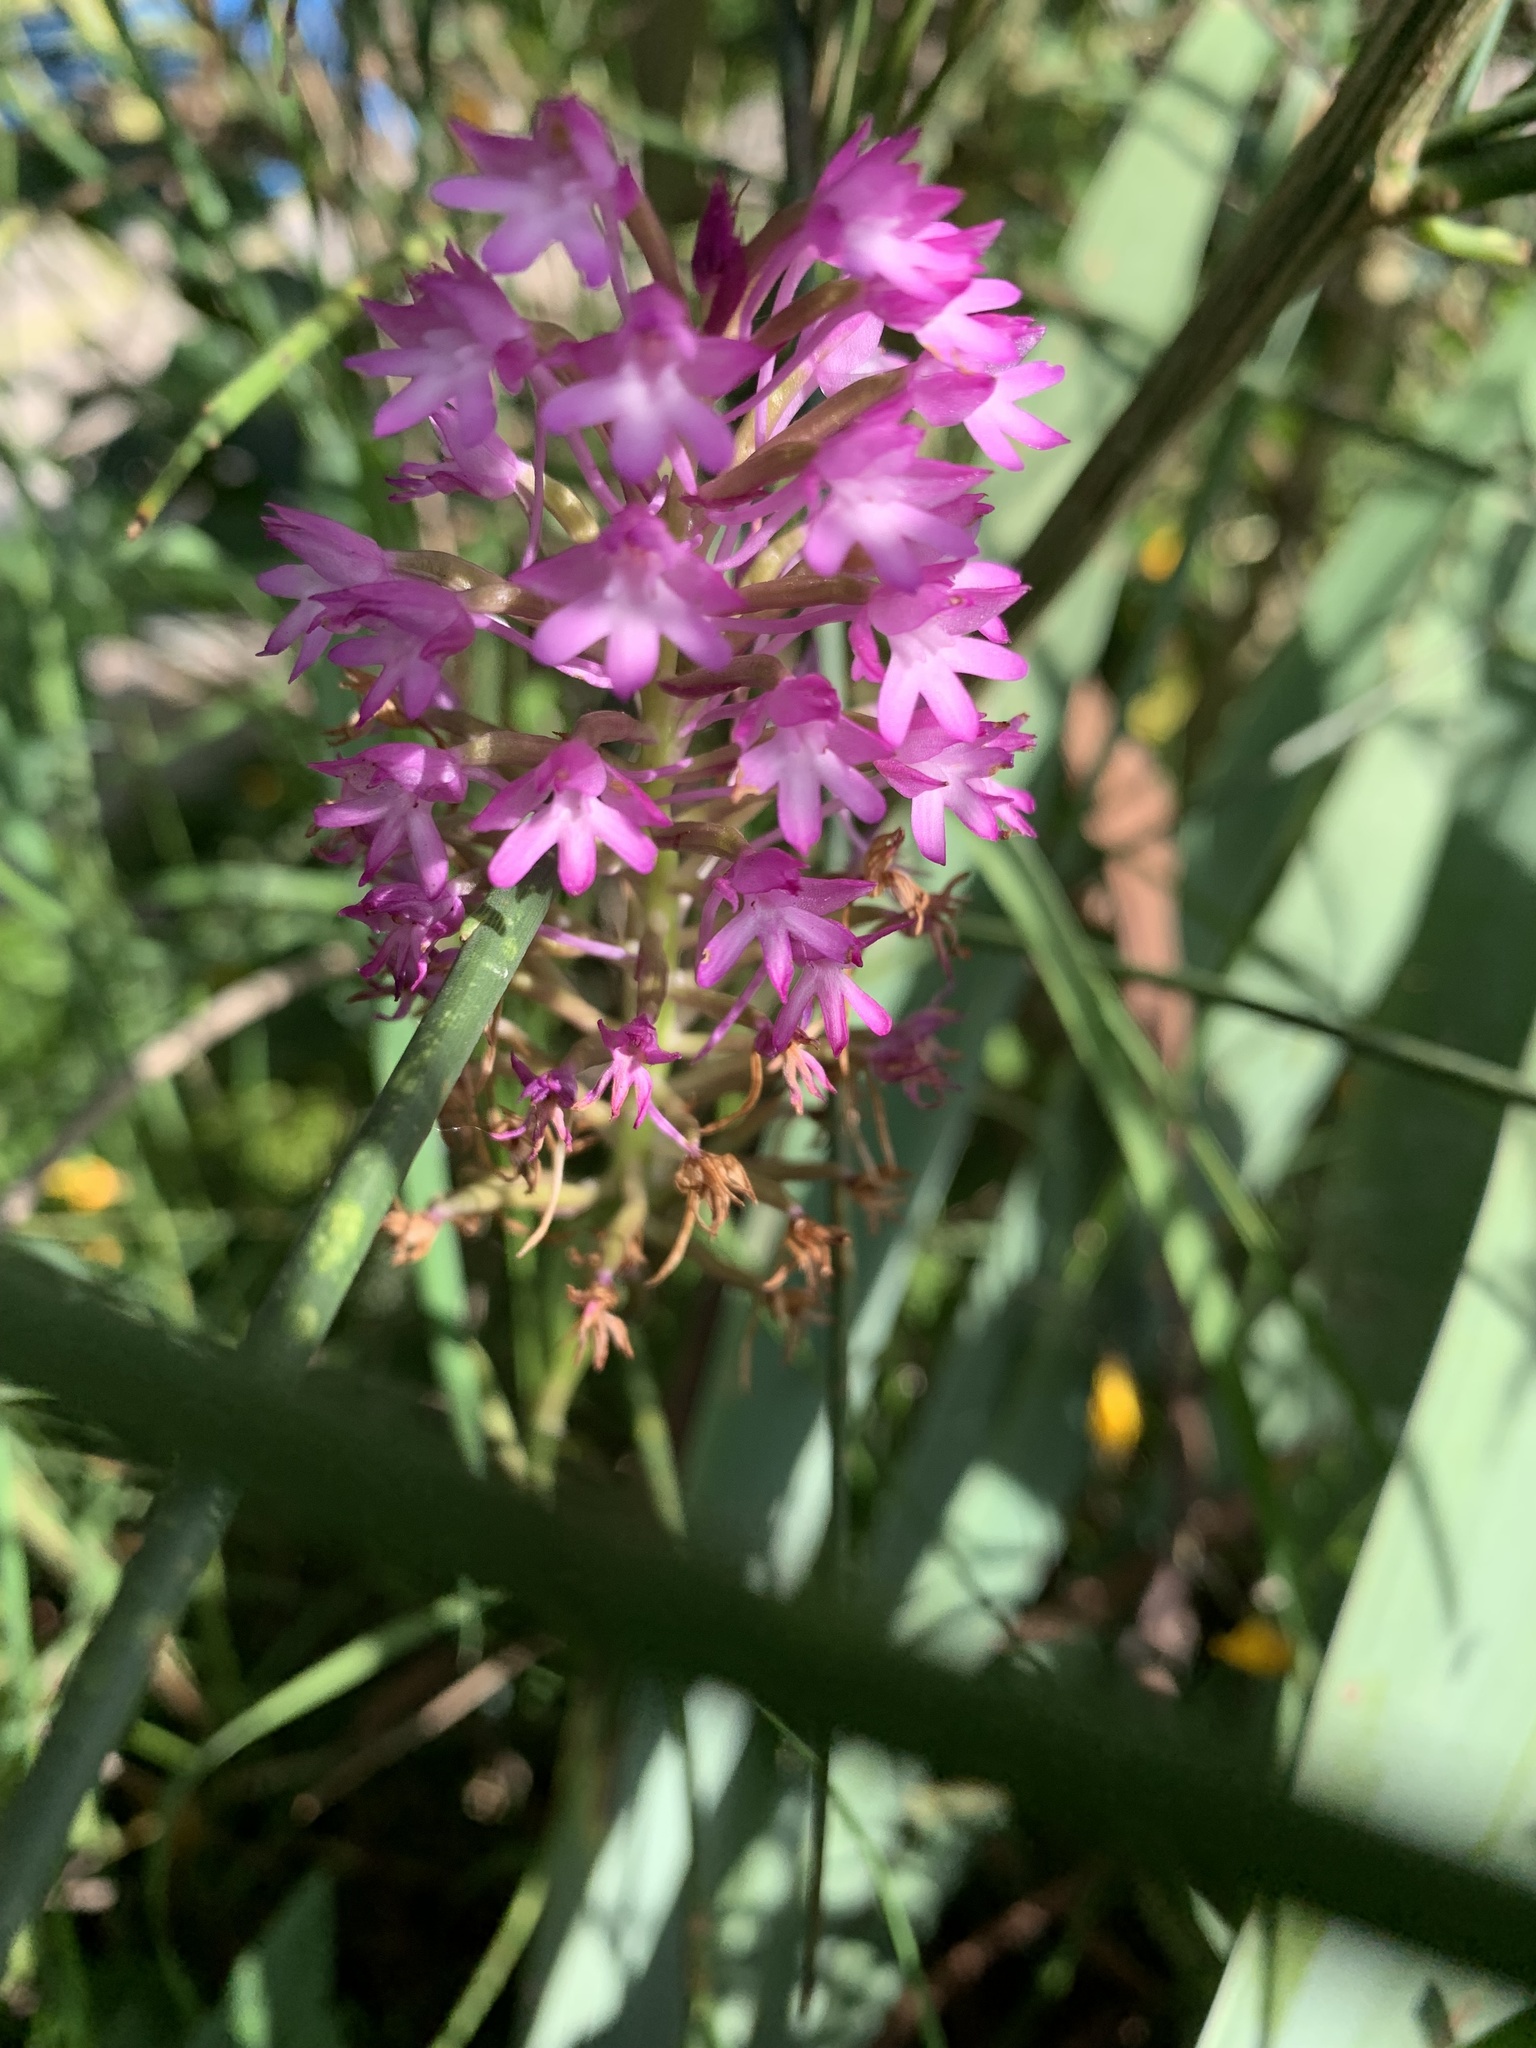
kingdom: Plantae
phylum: Tracheophyta
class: Liliopsida
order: Asparagales
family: Orchidaceae
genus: Anacamptis
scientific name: Anacamptis pyramidalis
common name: Pyramidal orchid
